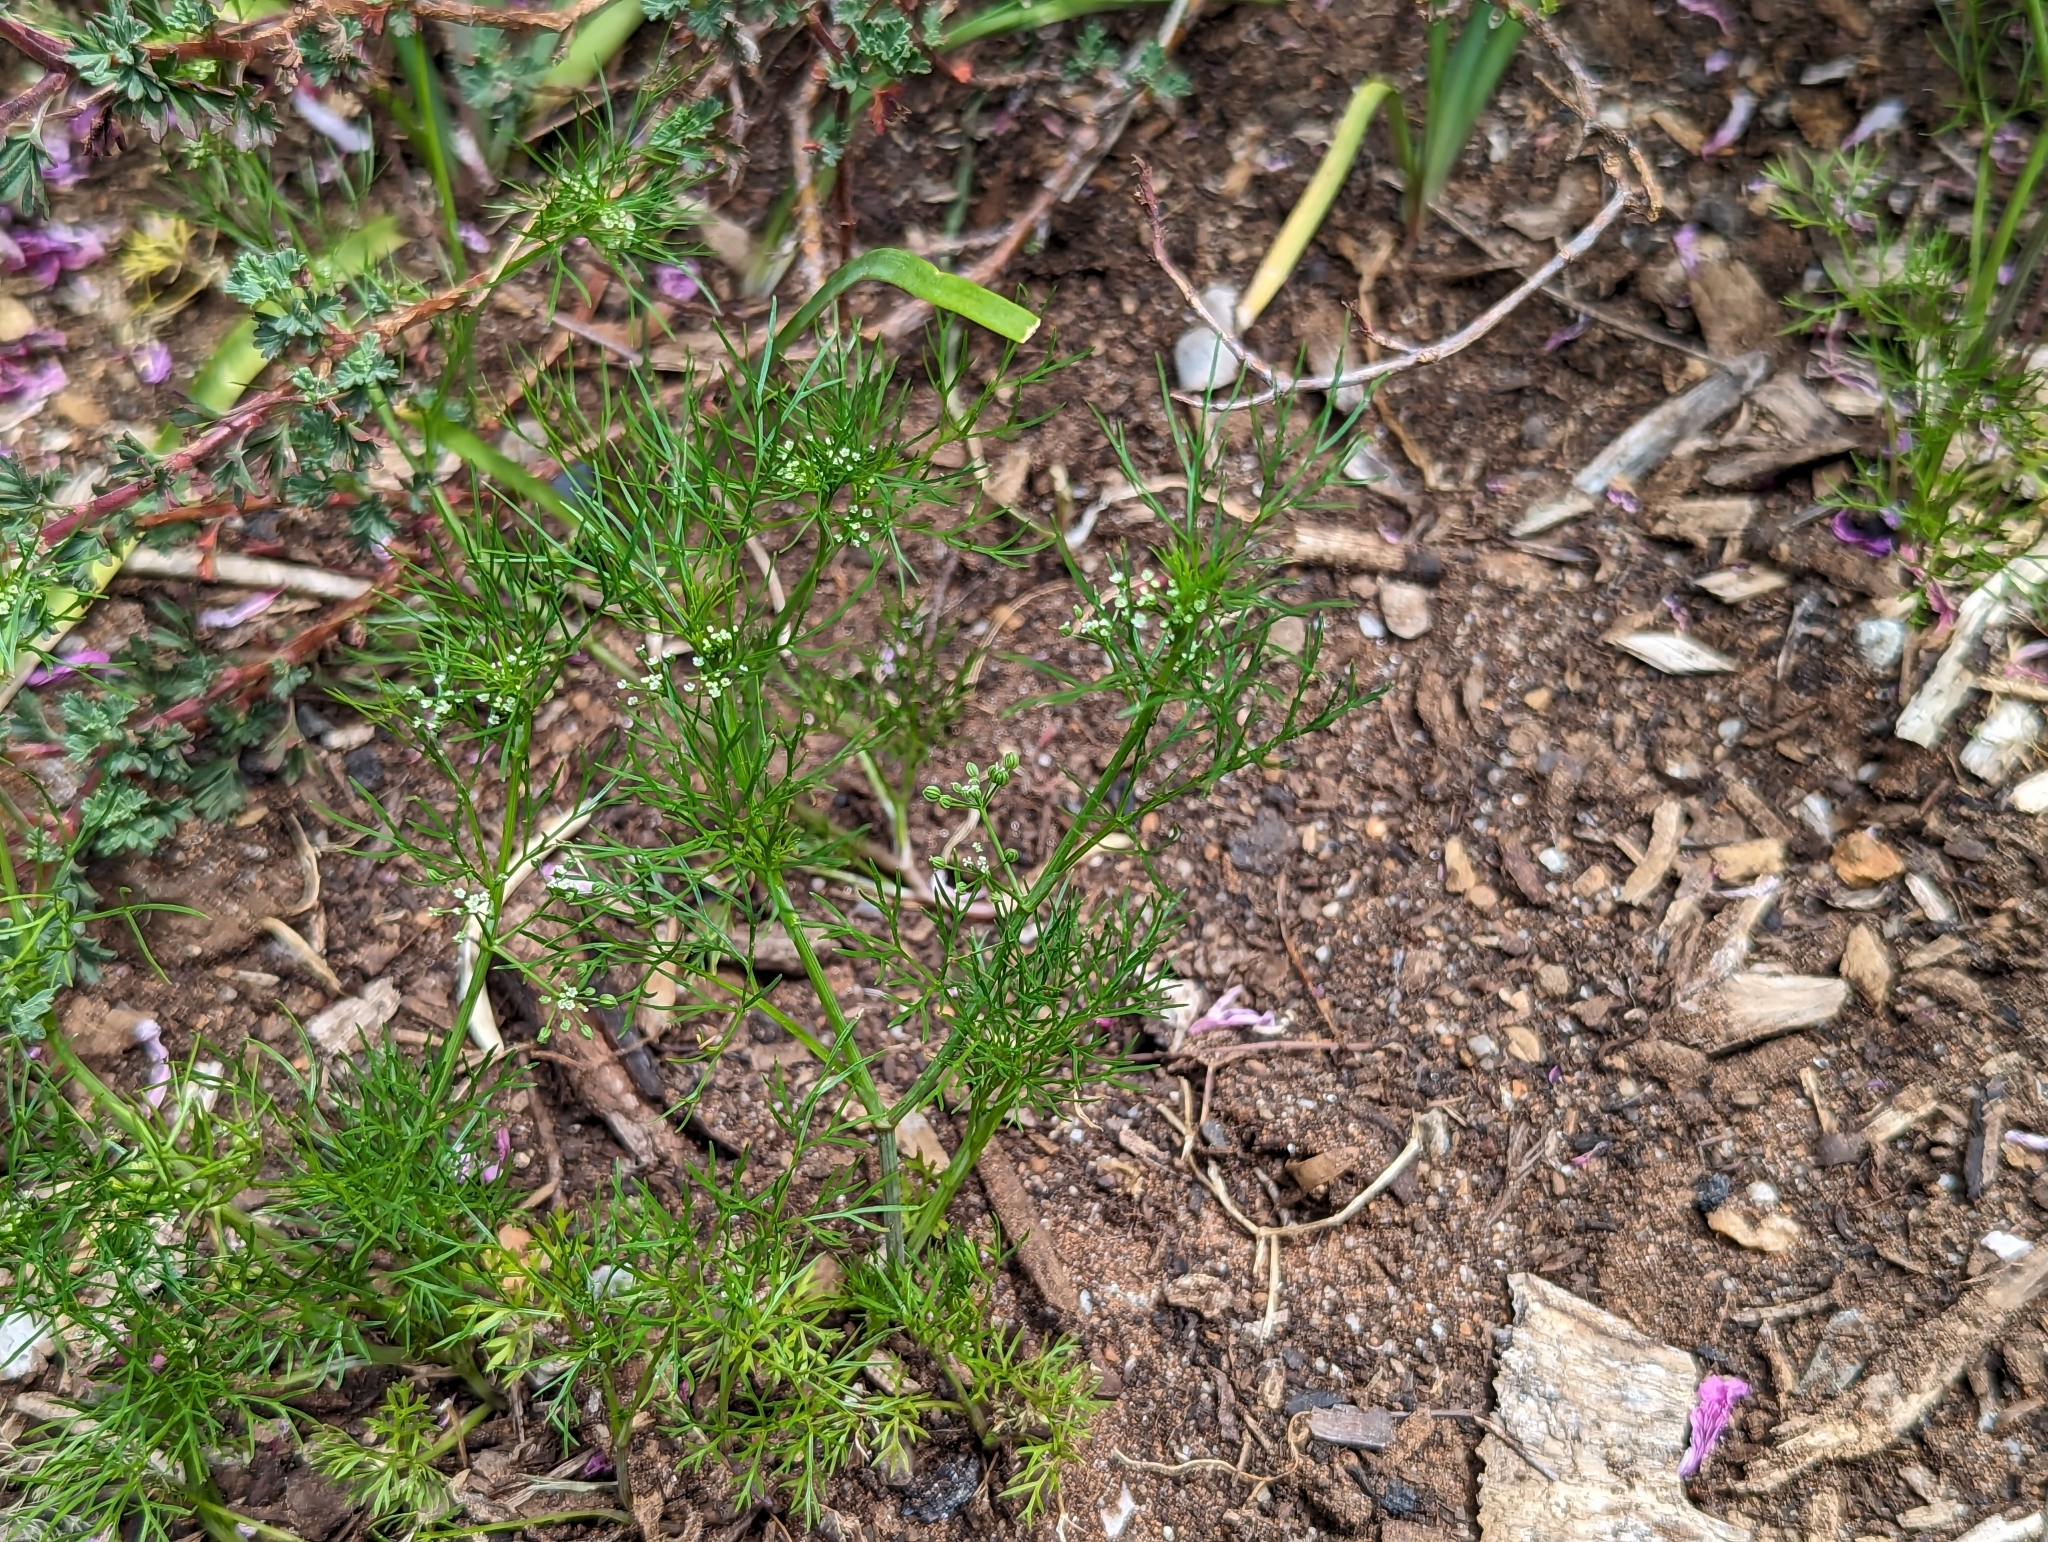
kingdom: Plantae
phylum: Tracheophyta
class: Magnoliopsida
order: Apiales
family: Apiaceae
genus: Cyclospermum
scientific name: Cyclospermum leptophyllum
